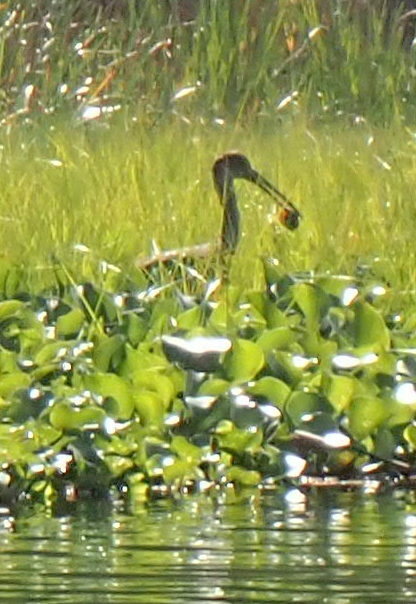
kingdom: Animalia
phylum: Chordata
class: Aves
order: Gruiformes
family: Aramidae
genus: Aramus
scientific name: Aramus guarauna
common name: Limpkin
